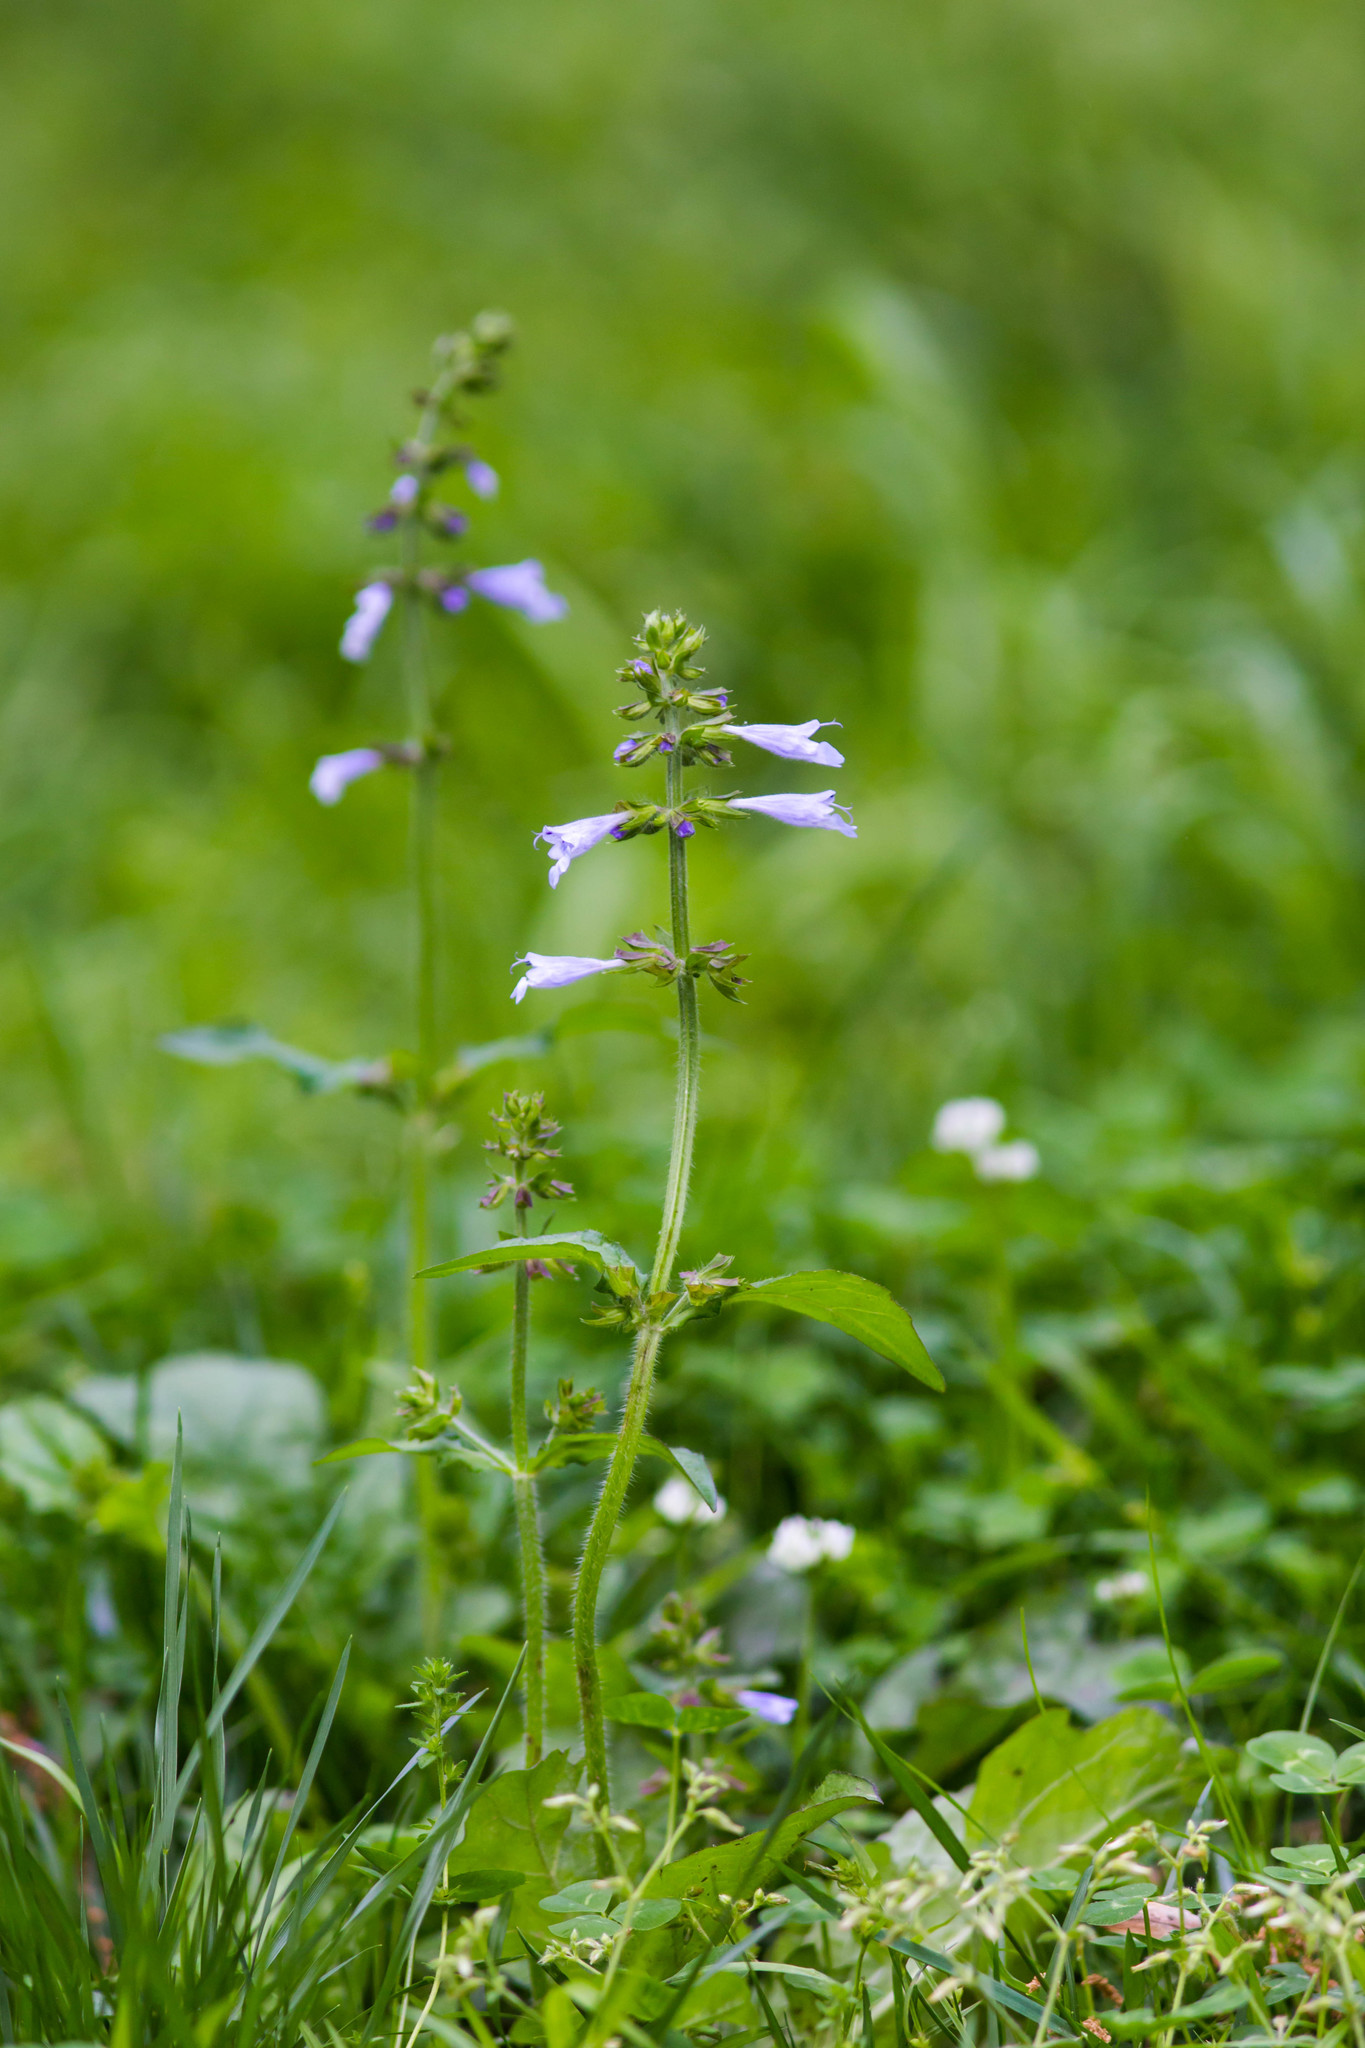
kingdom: Plantae
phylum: Tracheophyta
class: Magnoliopsida
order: Lamiales
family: Lamiaceae
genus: Salvia
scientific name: Salvia lyrata
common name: Cancerweed
